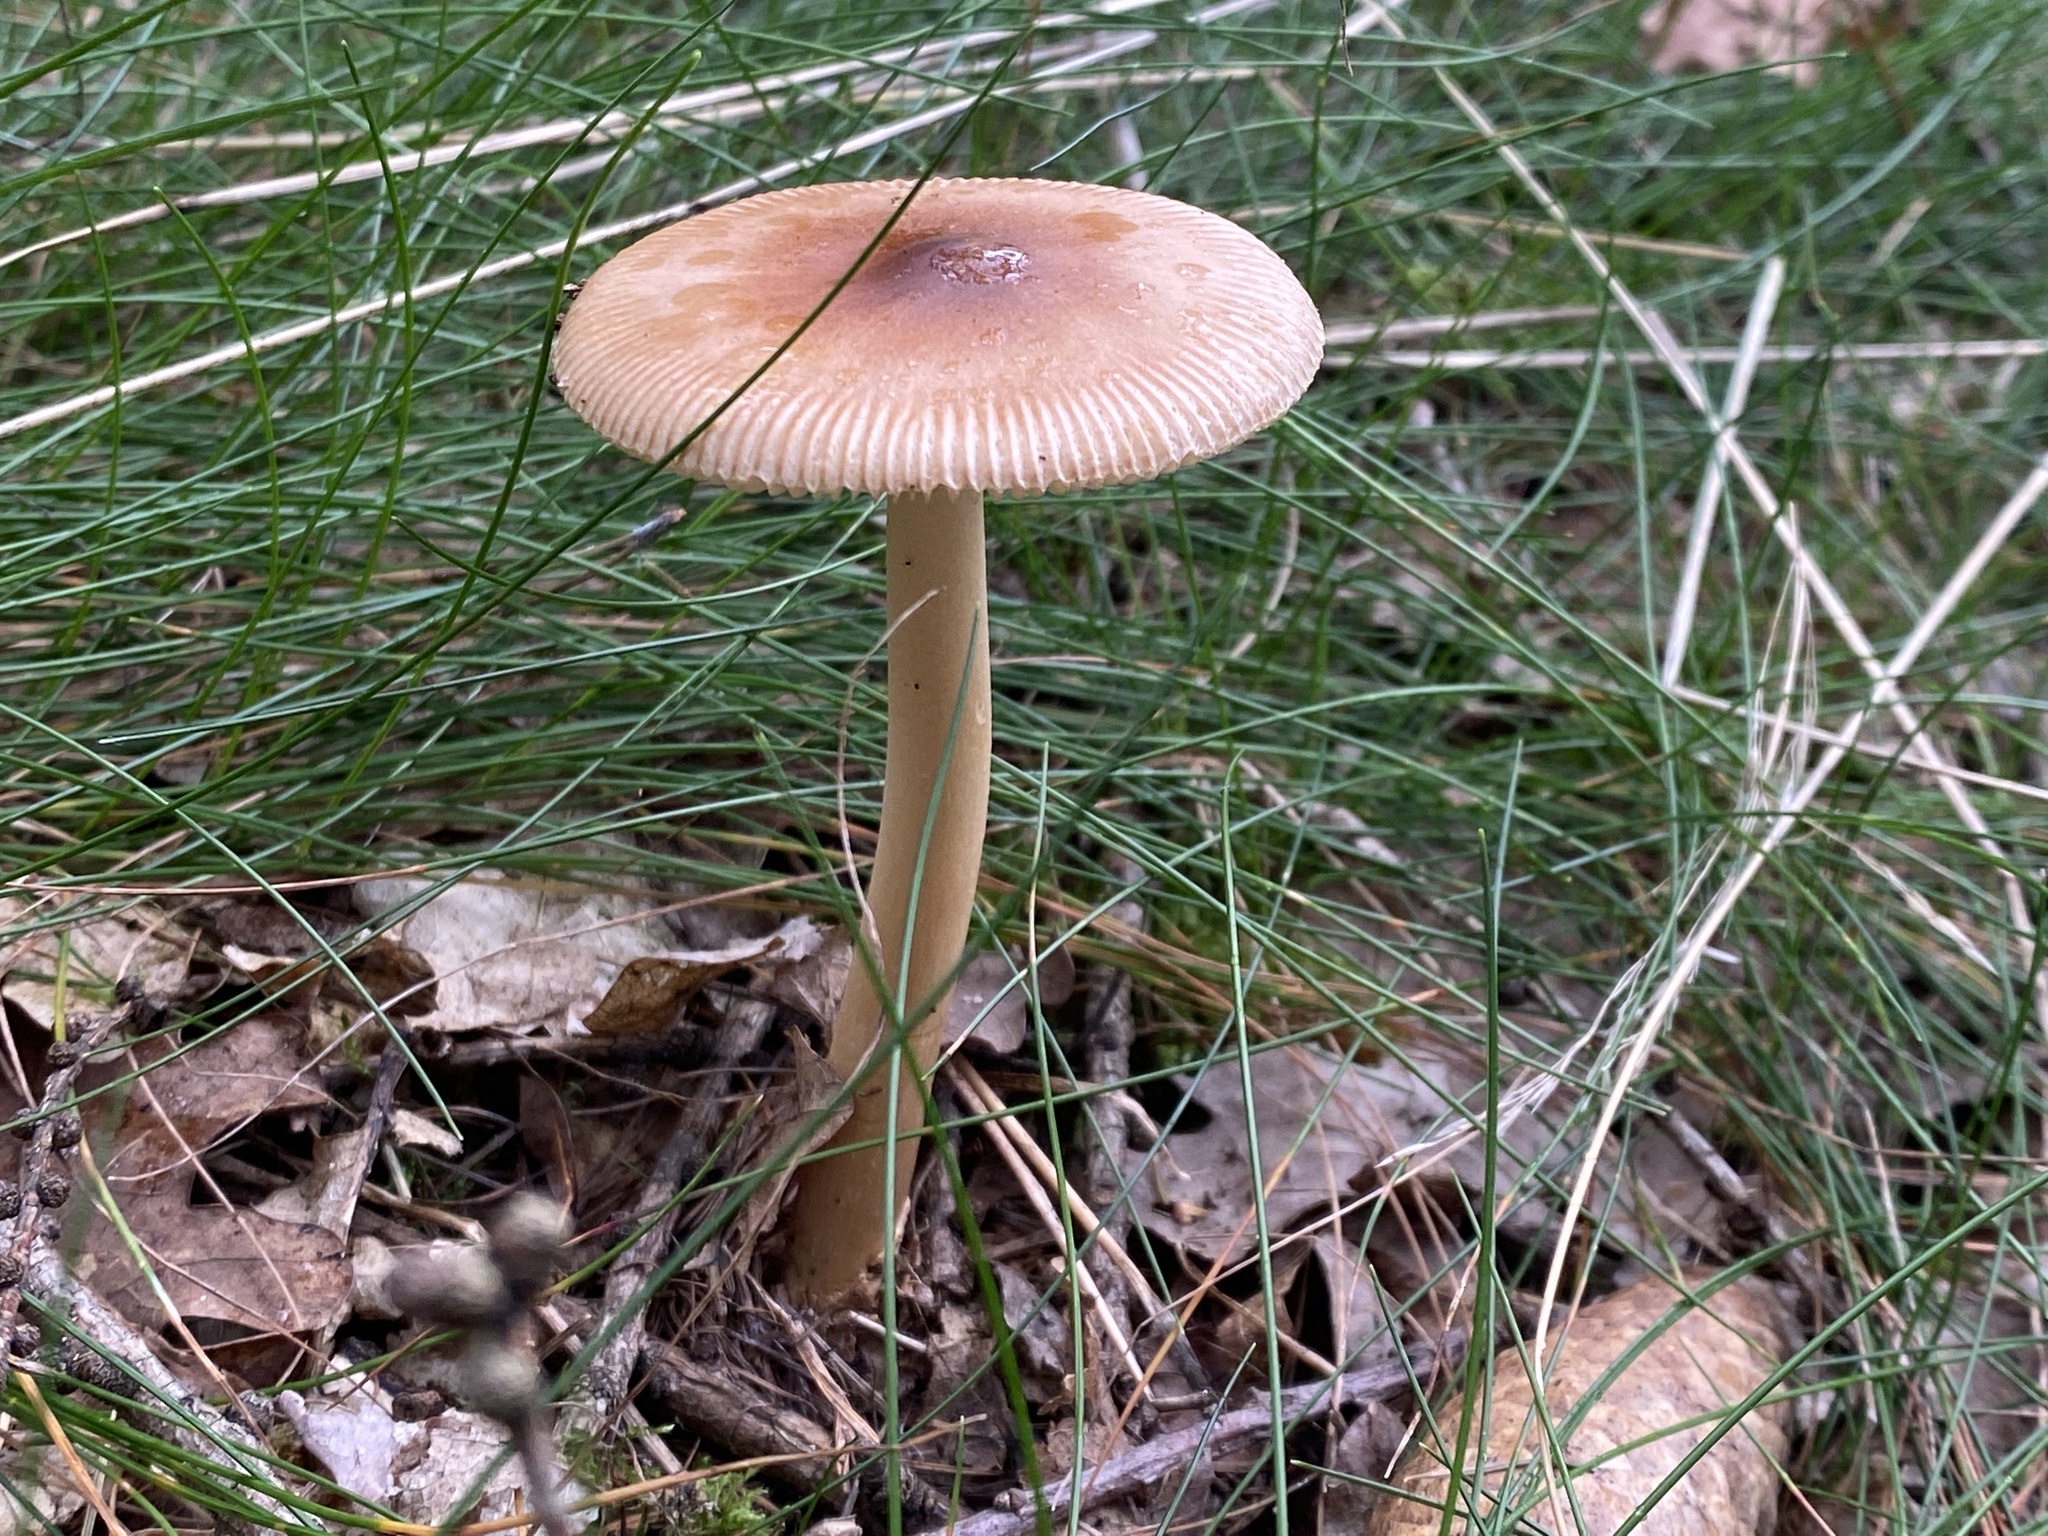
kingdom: Fungi
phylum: Basidiomycota
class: Agaricomycetes
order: Agaricales
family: Amanitaceae
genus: Amanita
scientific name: Amanita fulva
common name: Tawny grisette
